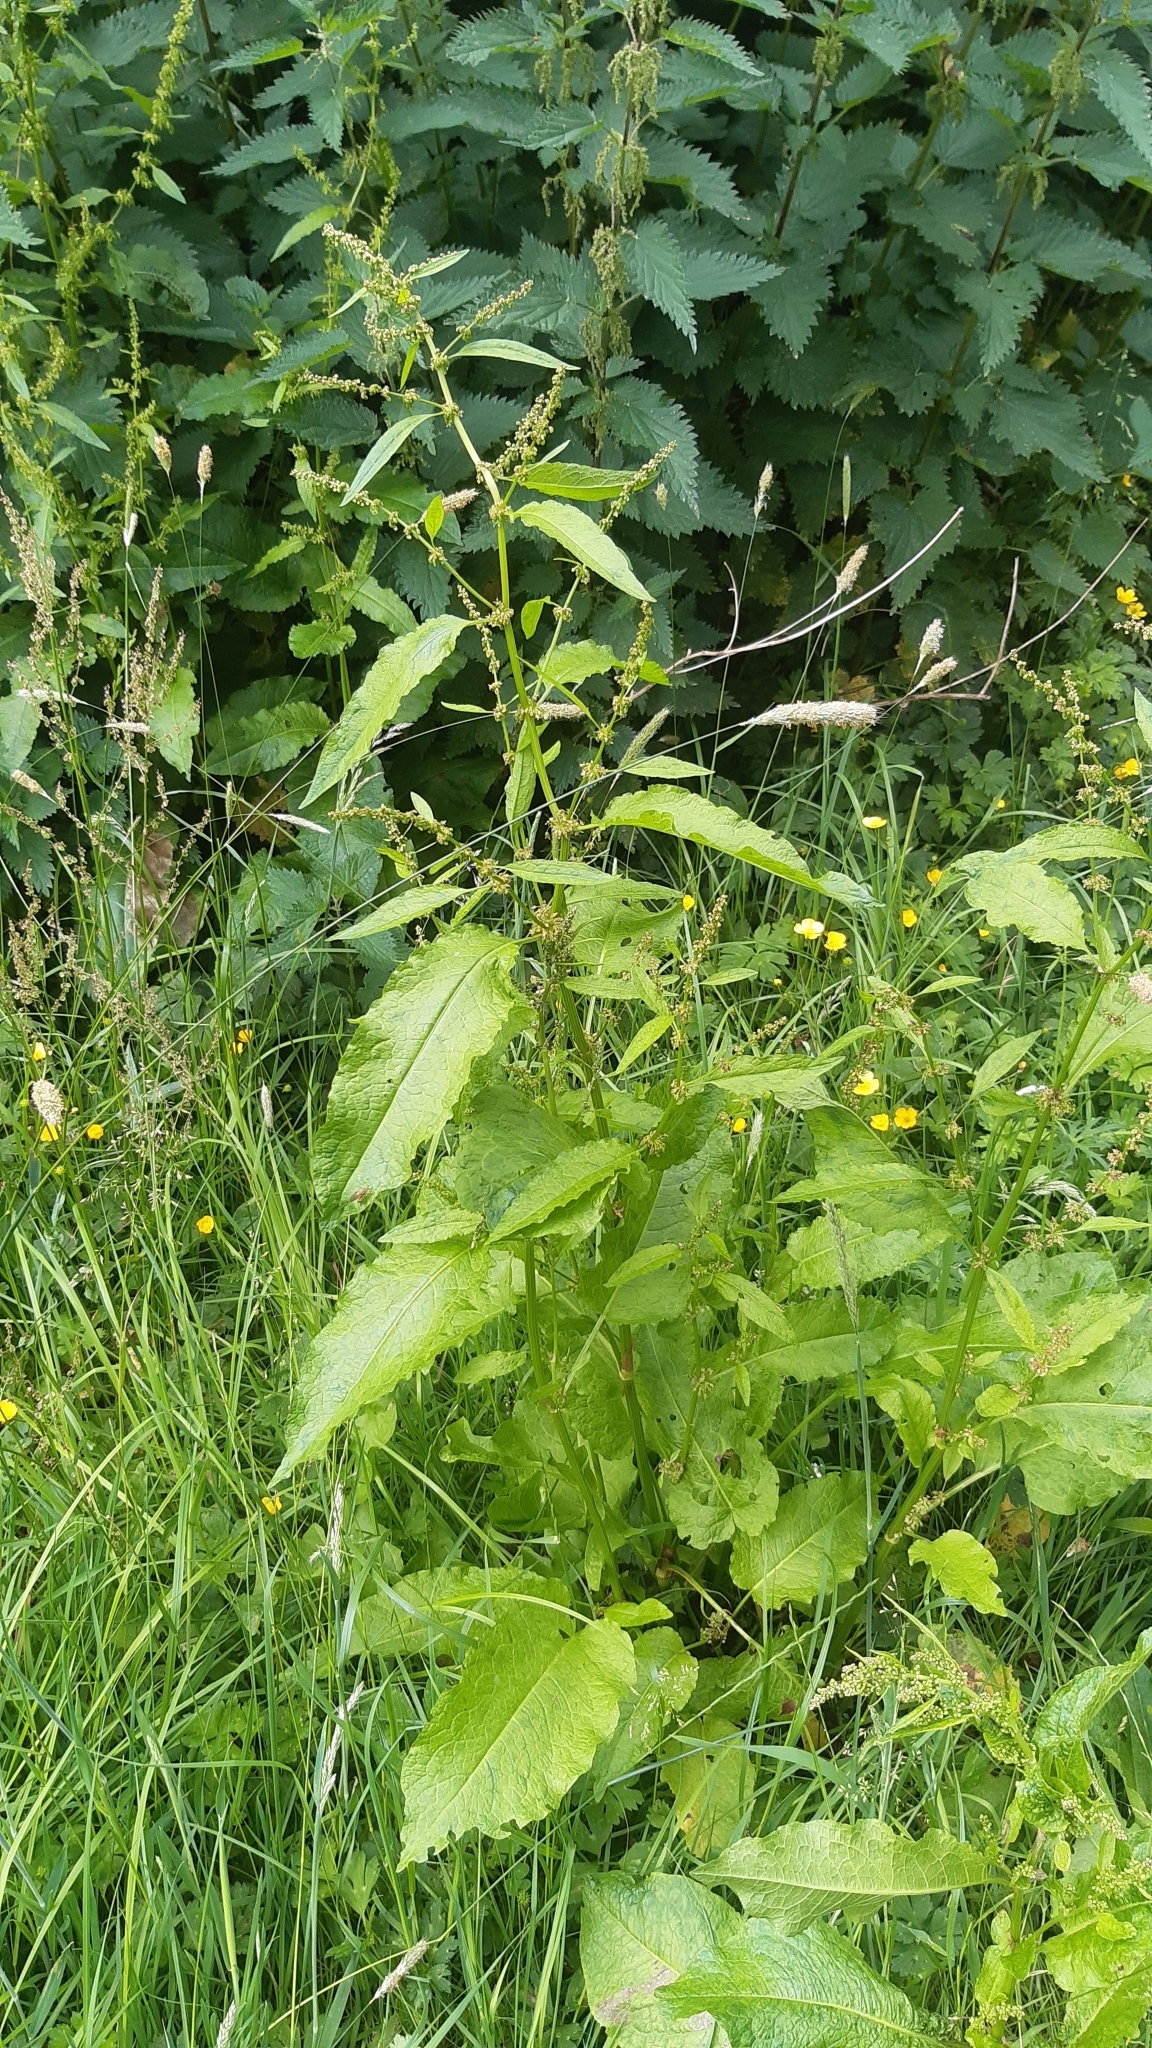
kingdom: Plantae
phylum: Tracheophyta
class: Magnoliopsida
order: Caryophyllales
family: Polygonaceae
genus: Rumex
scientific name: Rumex obtusifolius
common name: Bitter dock
